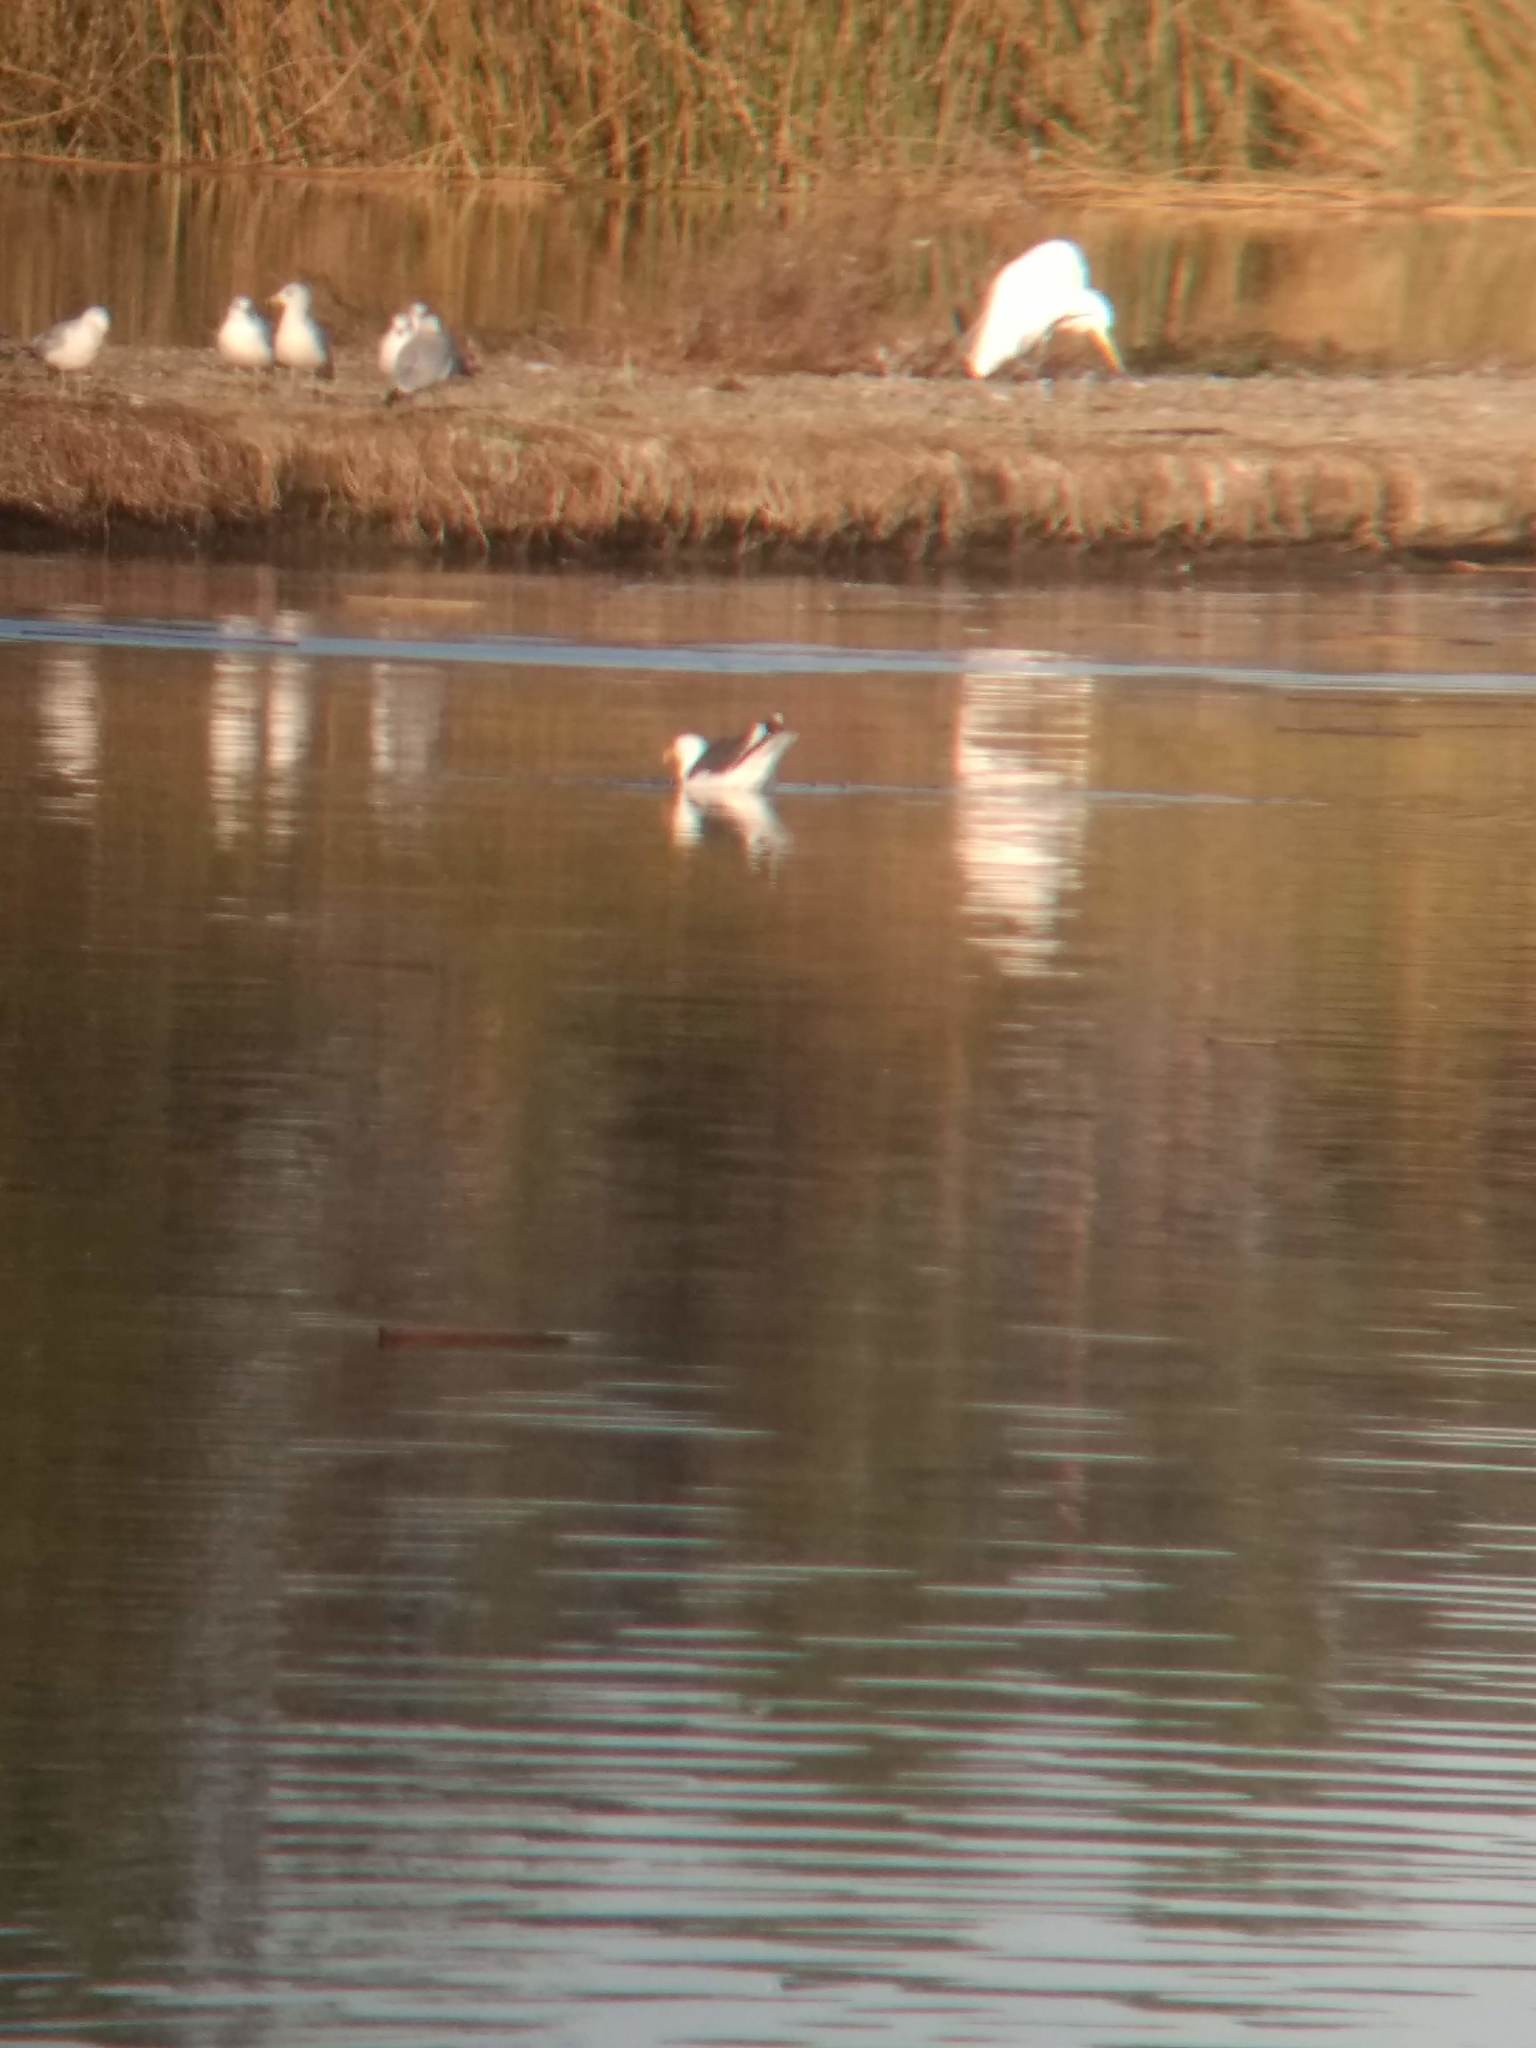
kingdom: Animalia
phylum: Chordata
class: Aves
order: Charadriiformes
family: Laridae
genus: Larus
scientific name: Larus occidentalis
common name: Western gull
